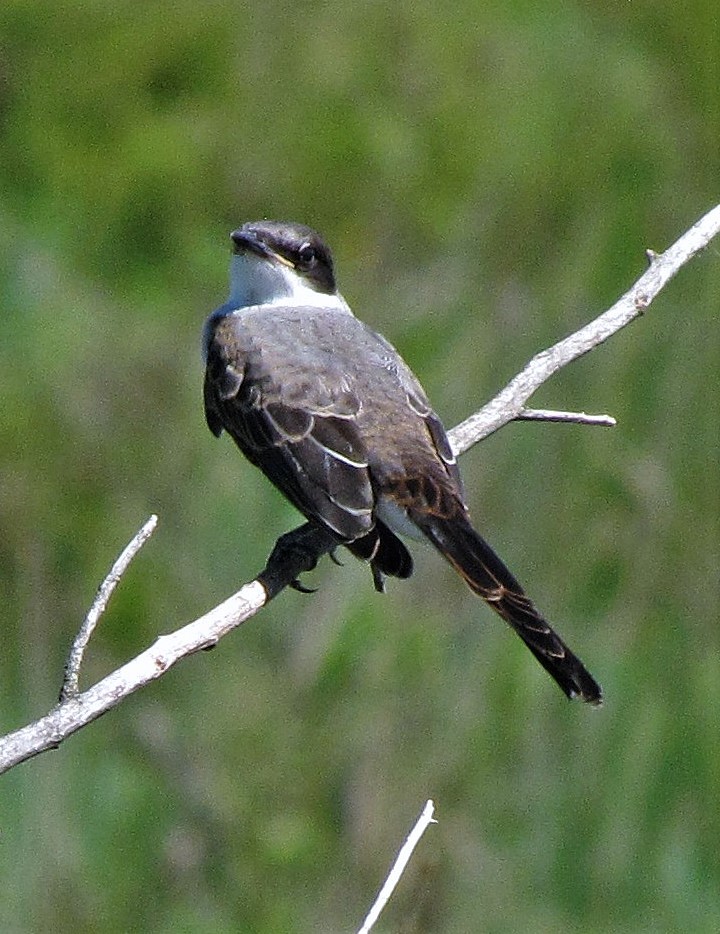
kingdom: Animalia
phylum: Chordata
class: Aves
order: Passeriformes
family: Tyrannidae
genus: Tyrannus
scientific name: Tyrannus savana
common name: Fork-tailed flycatcher
